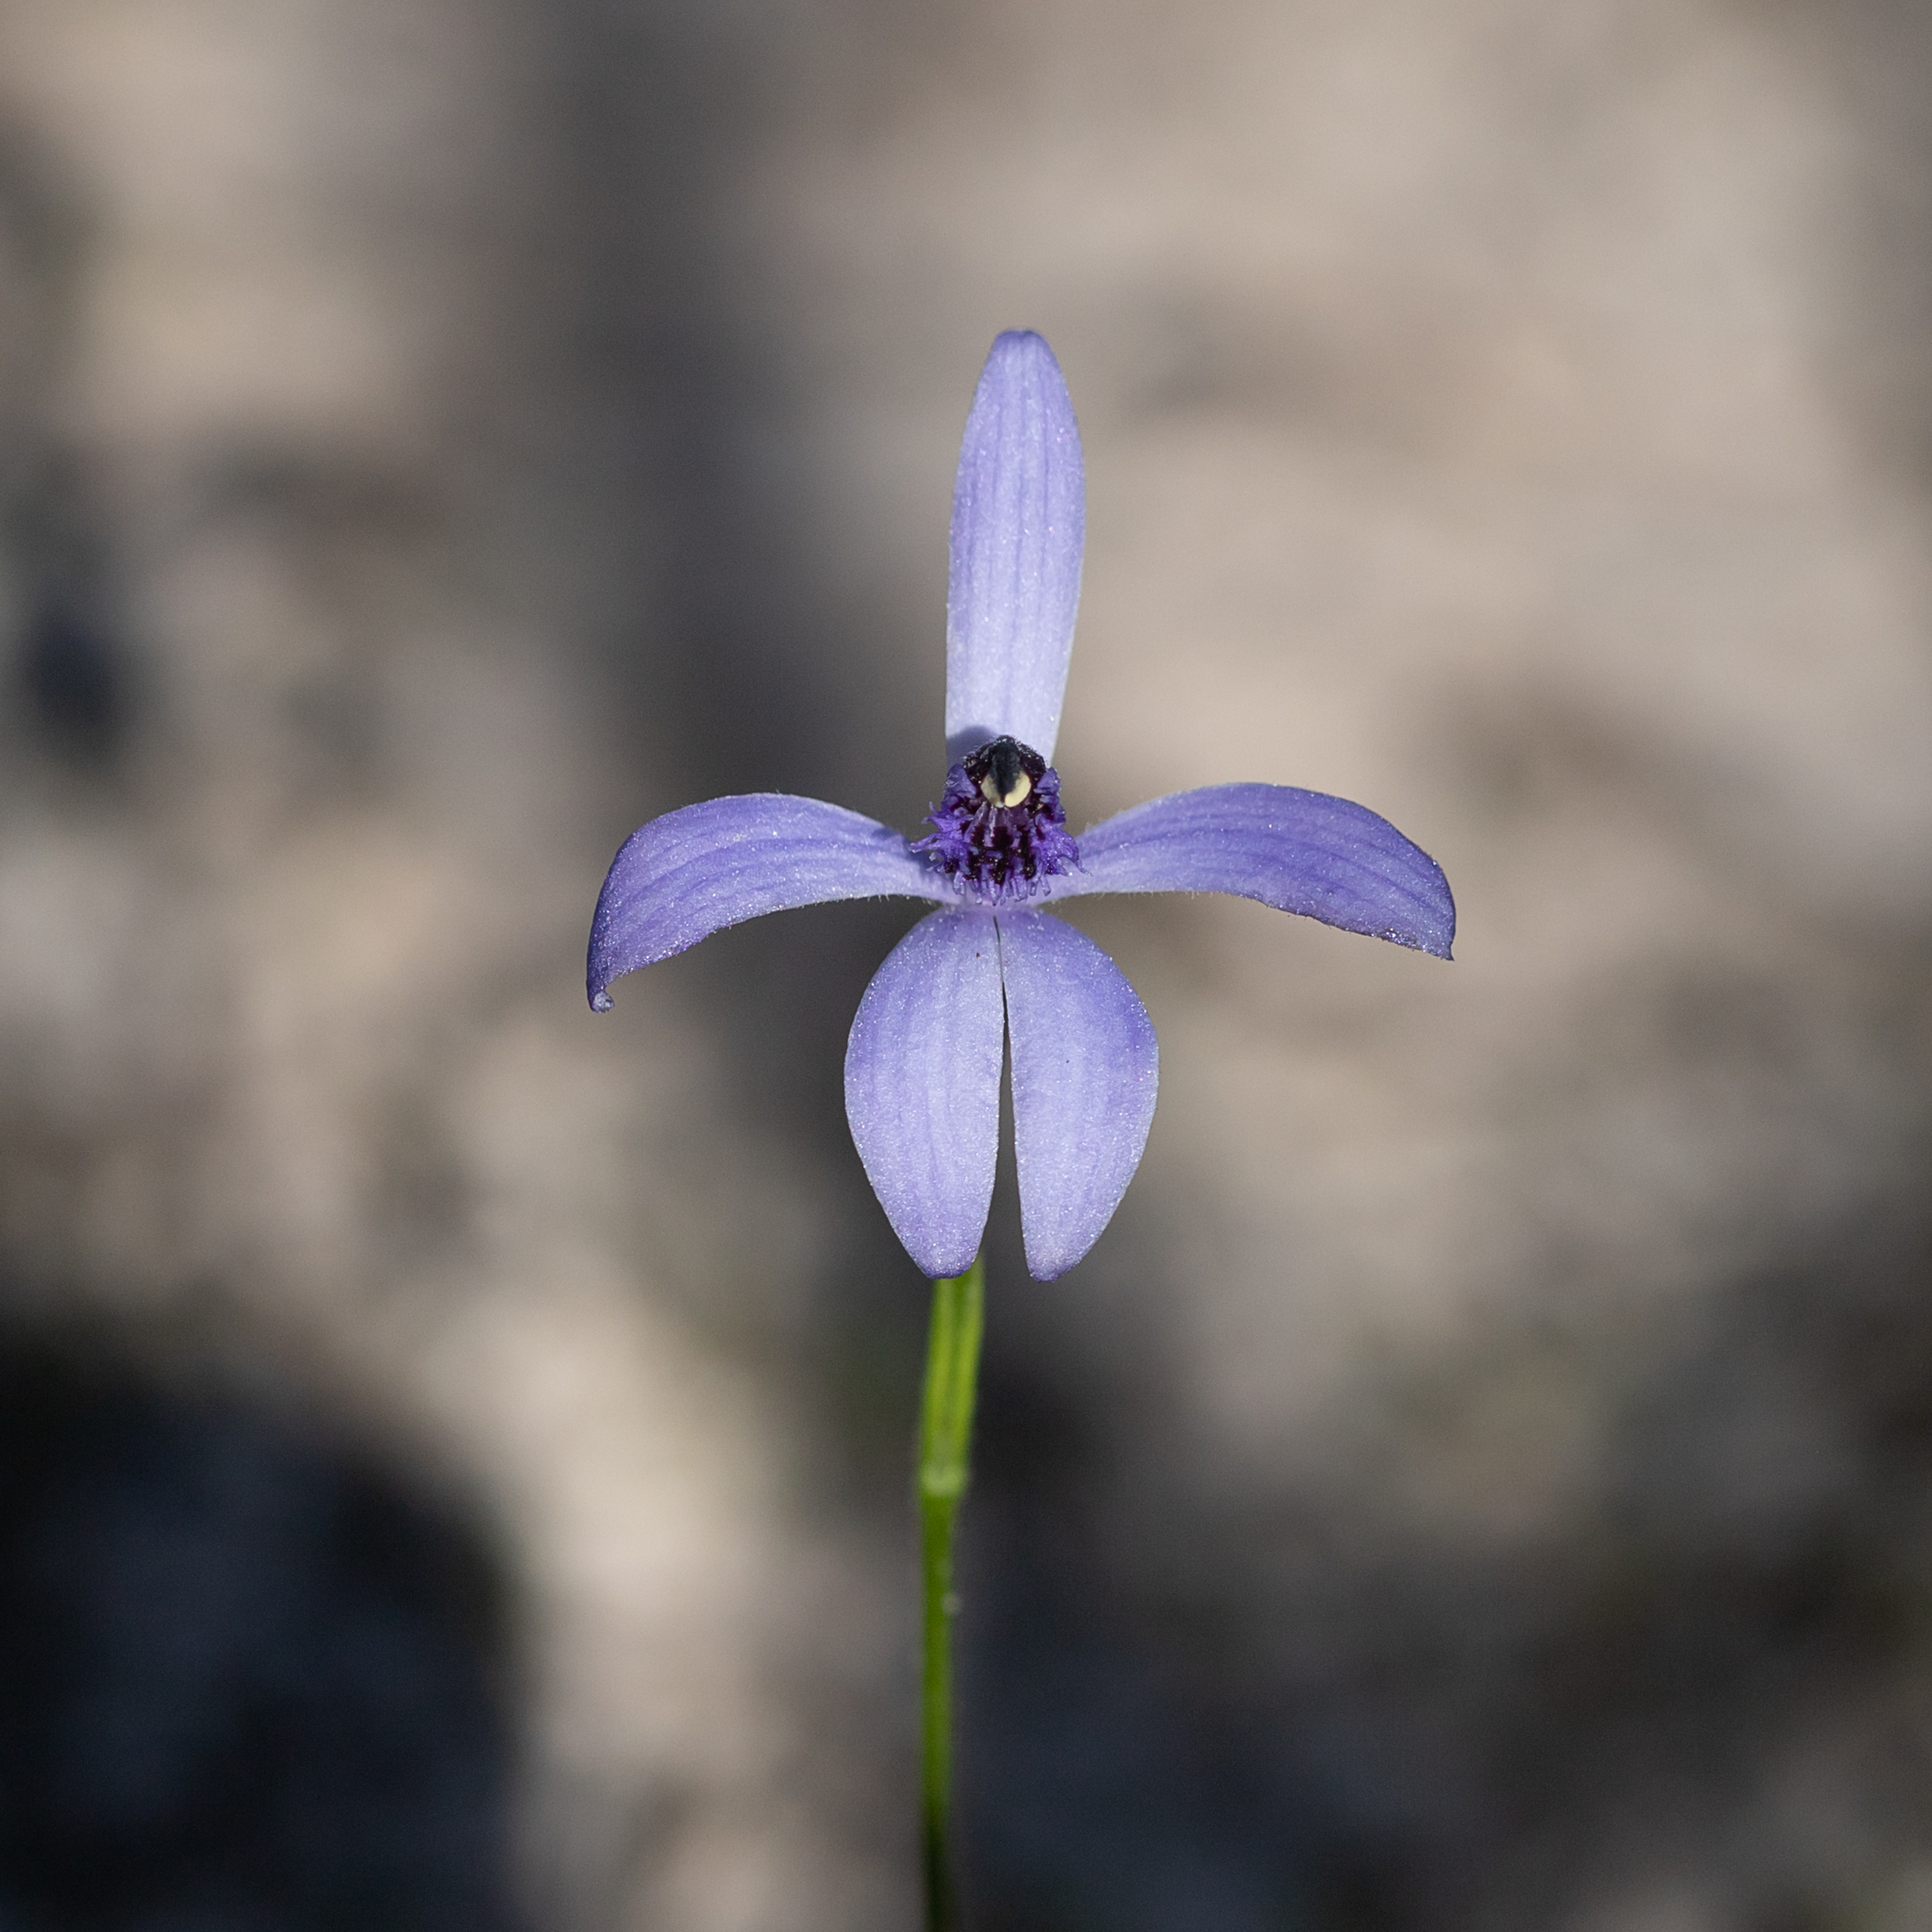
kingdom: Plantae
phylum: Tracheophyta
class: Liliopsida
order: Asparagales
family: Orchidaceae
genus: Pheladenia
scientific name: Pheladenia deformis
